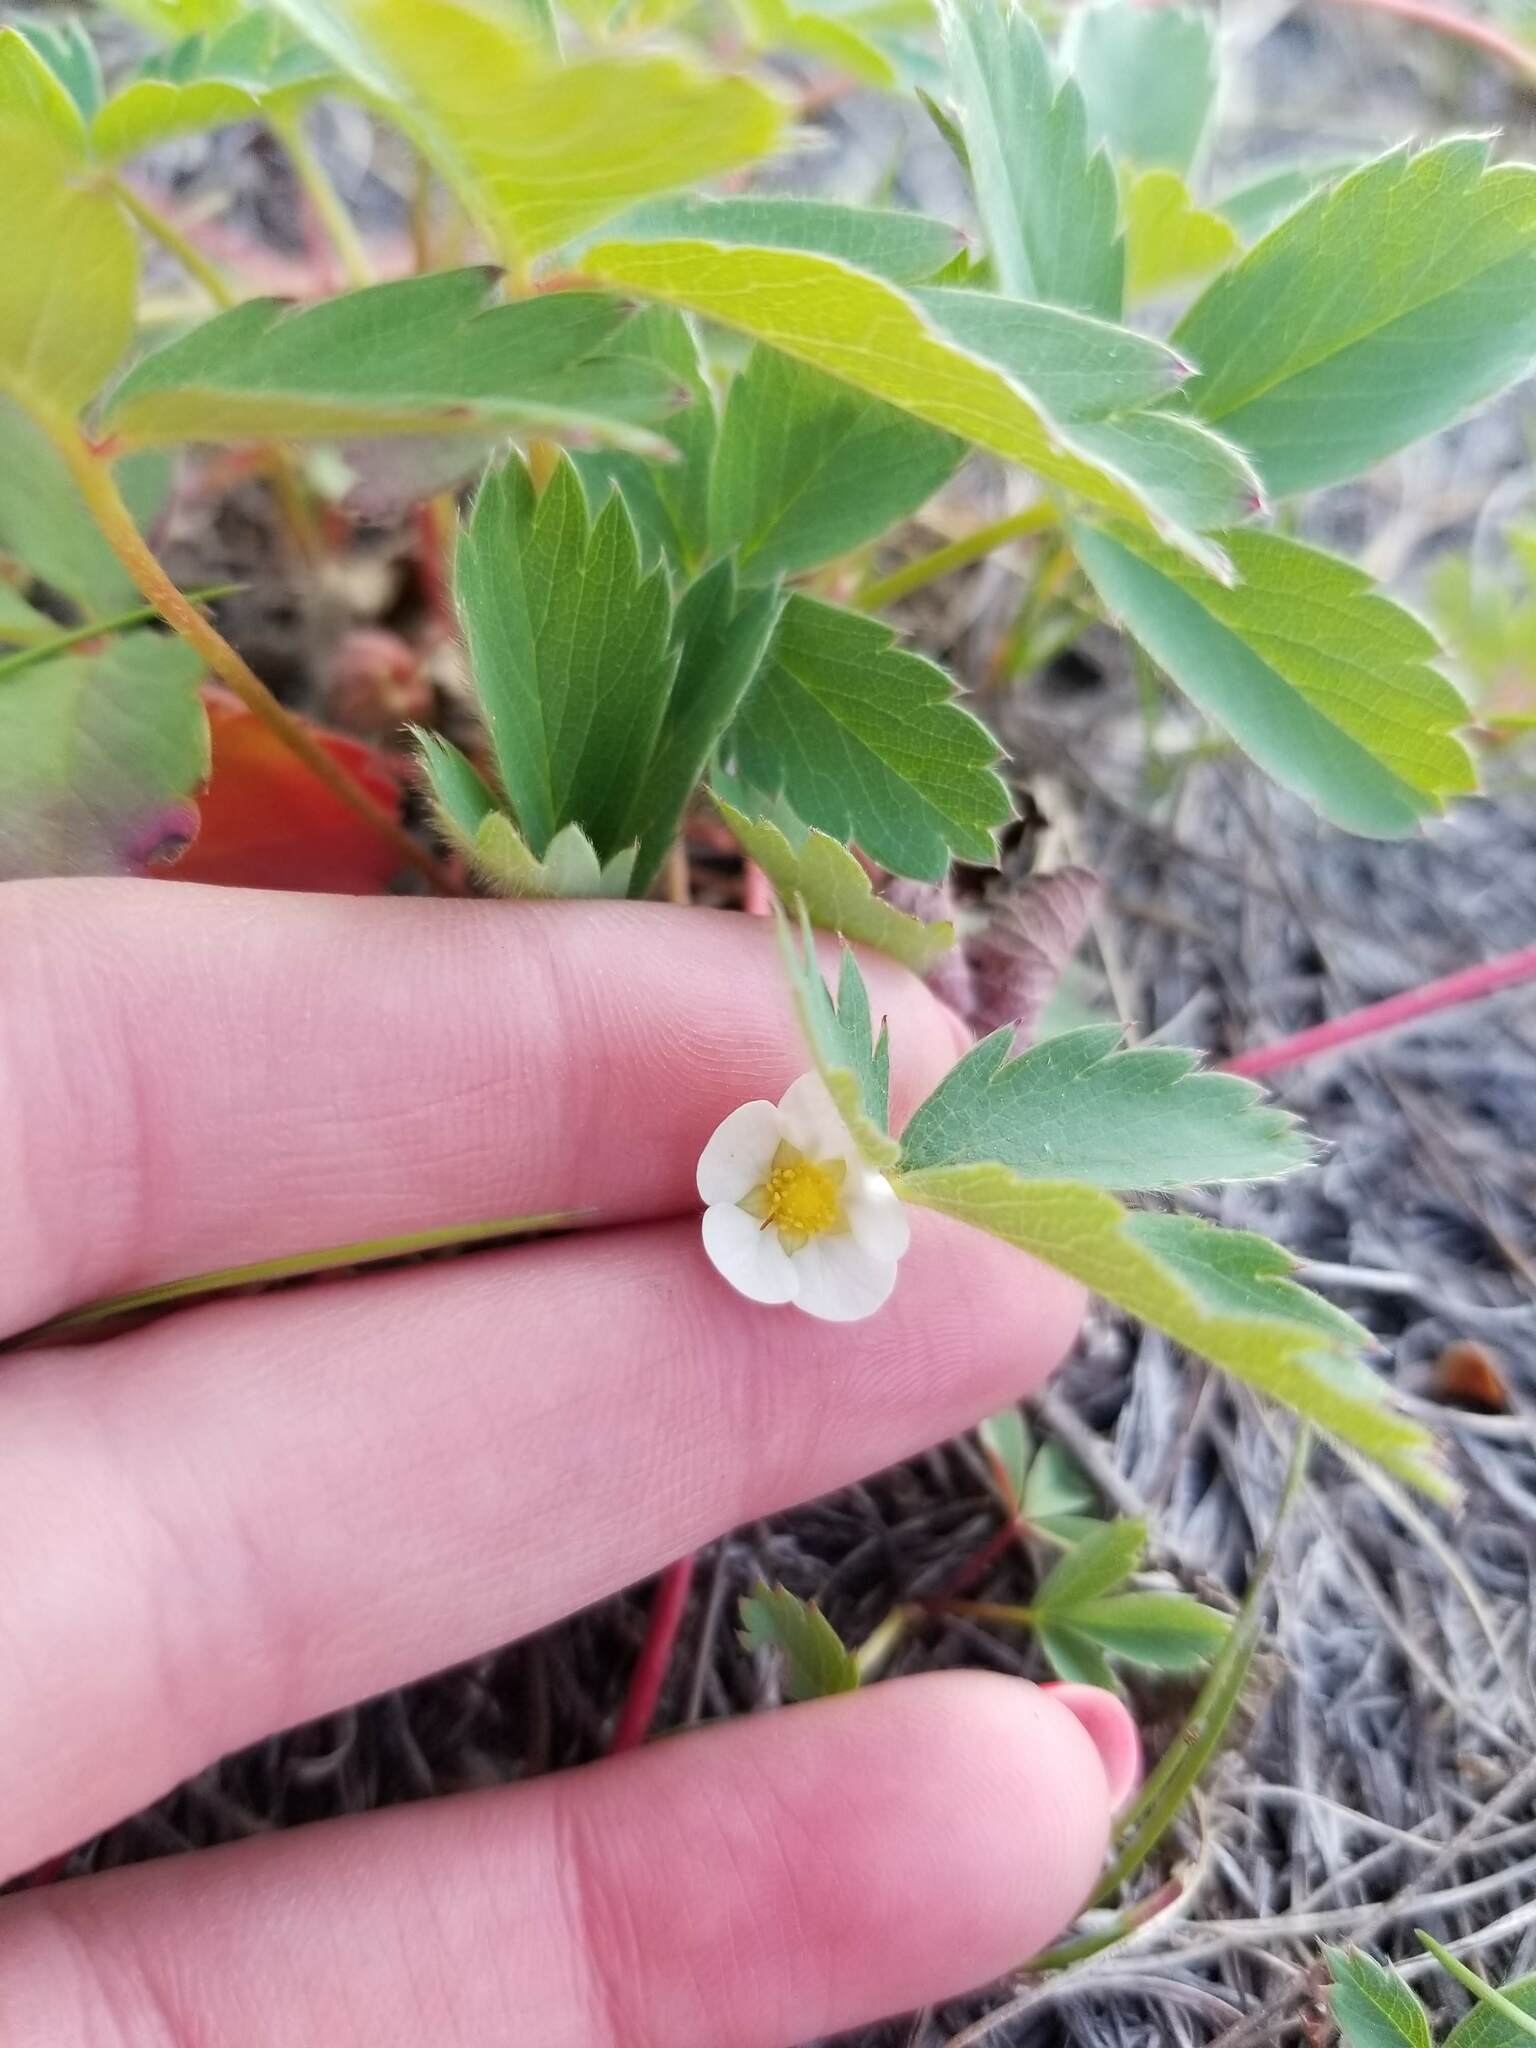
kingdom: Plantae
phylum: Tracheophyta
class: Magnoliopsida
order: Rosales
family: Rosaceae
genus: Fragaria
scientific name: Fragaria virginiana
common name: Thickleaved wild strawberry
